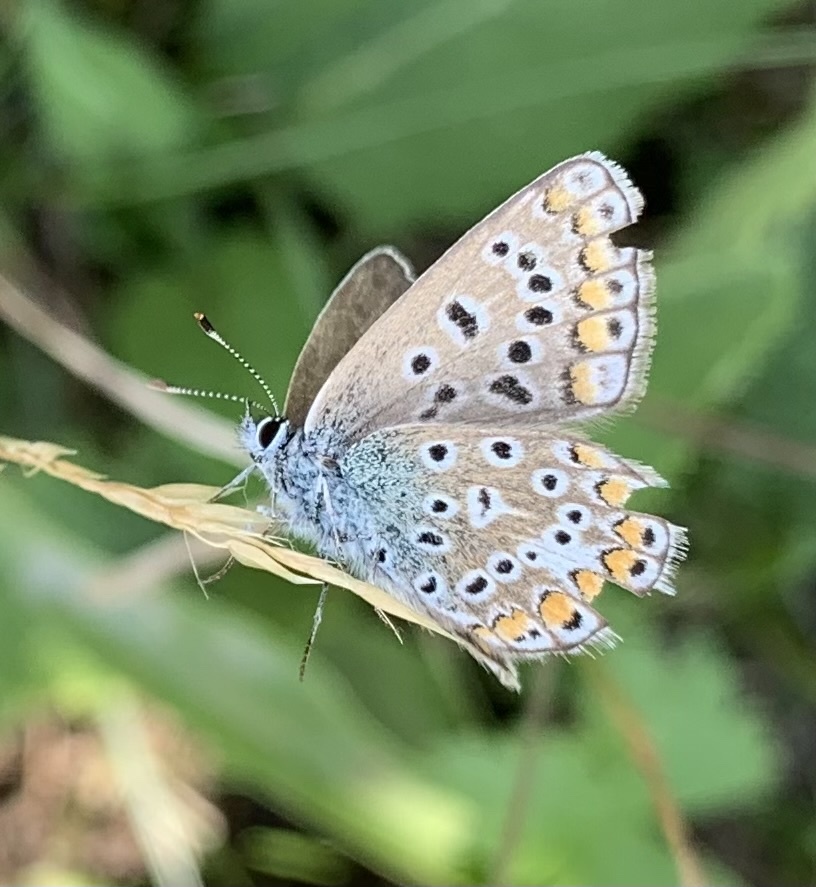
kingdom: Animalia
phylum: Arthropoda
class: Insecta
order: Lepidoptera
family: Lycaenidae
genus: Polyommatus
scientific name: Polyommatus icarus
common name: Common blue
